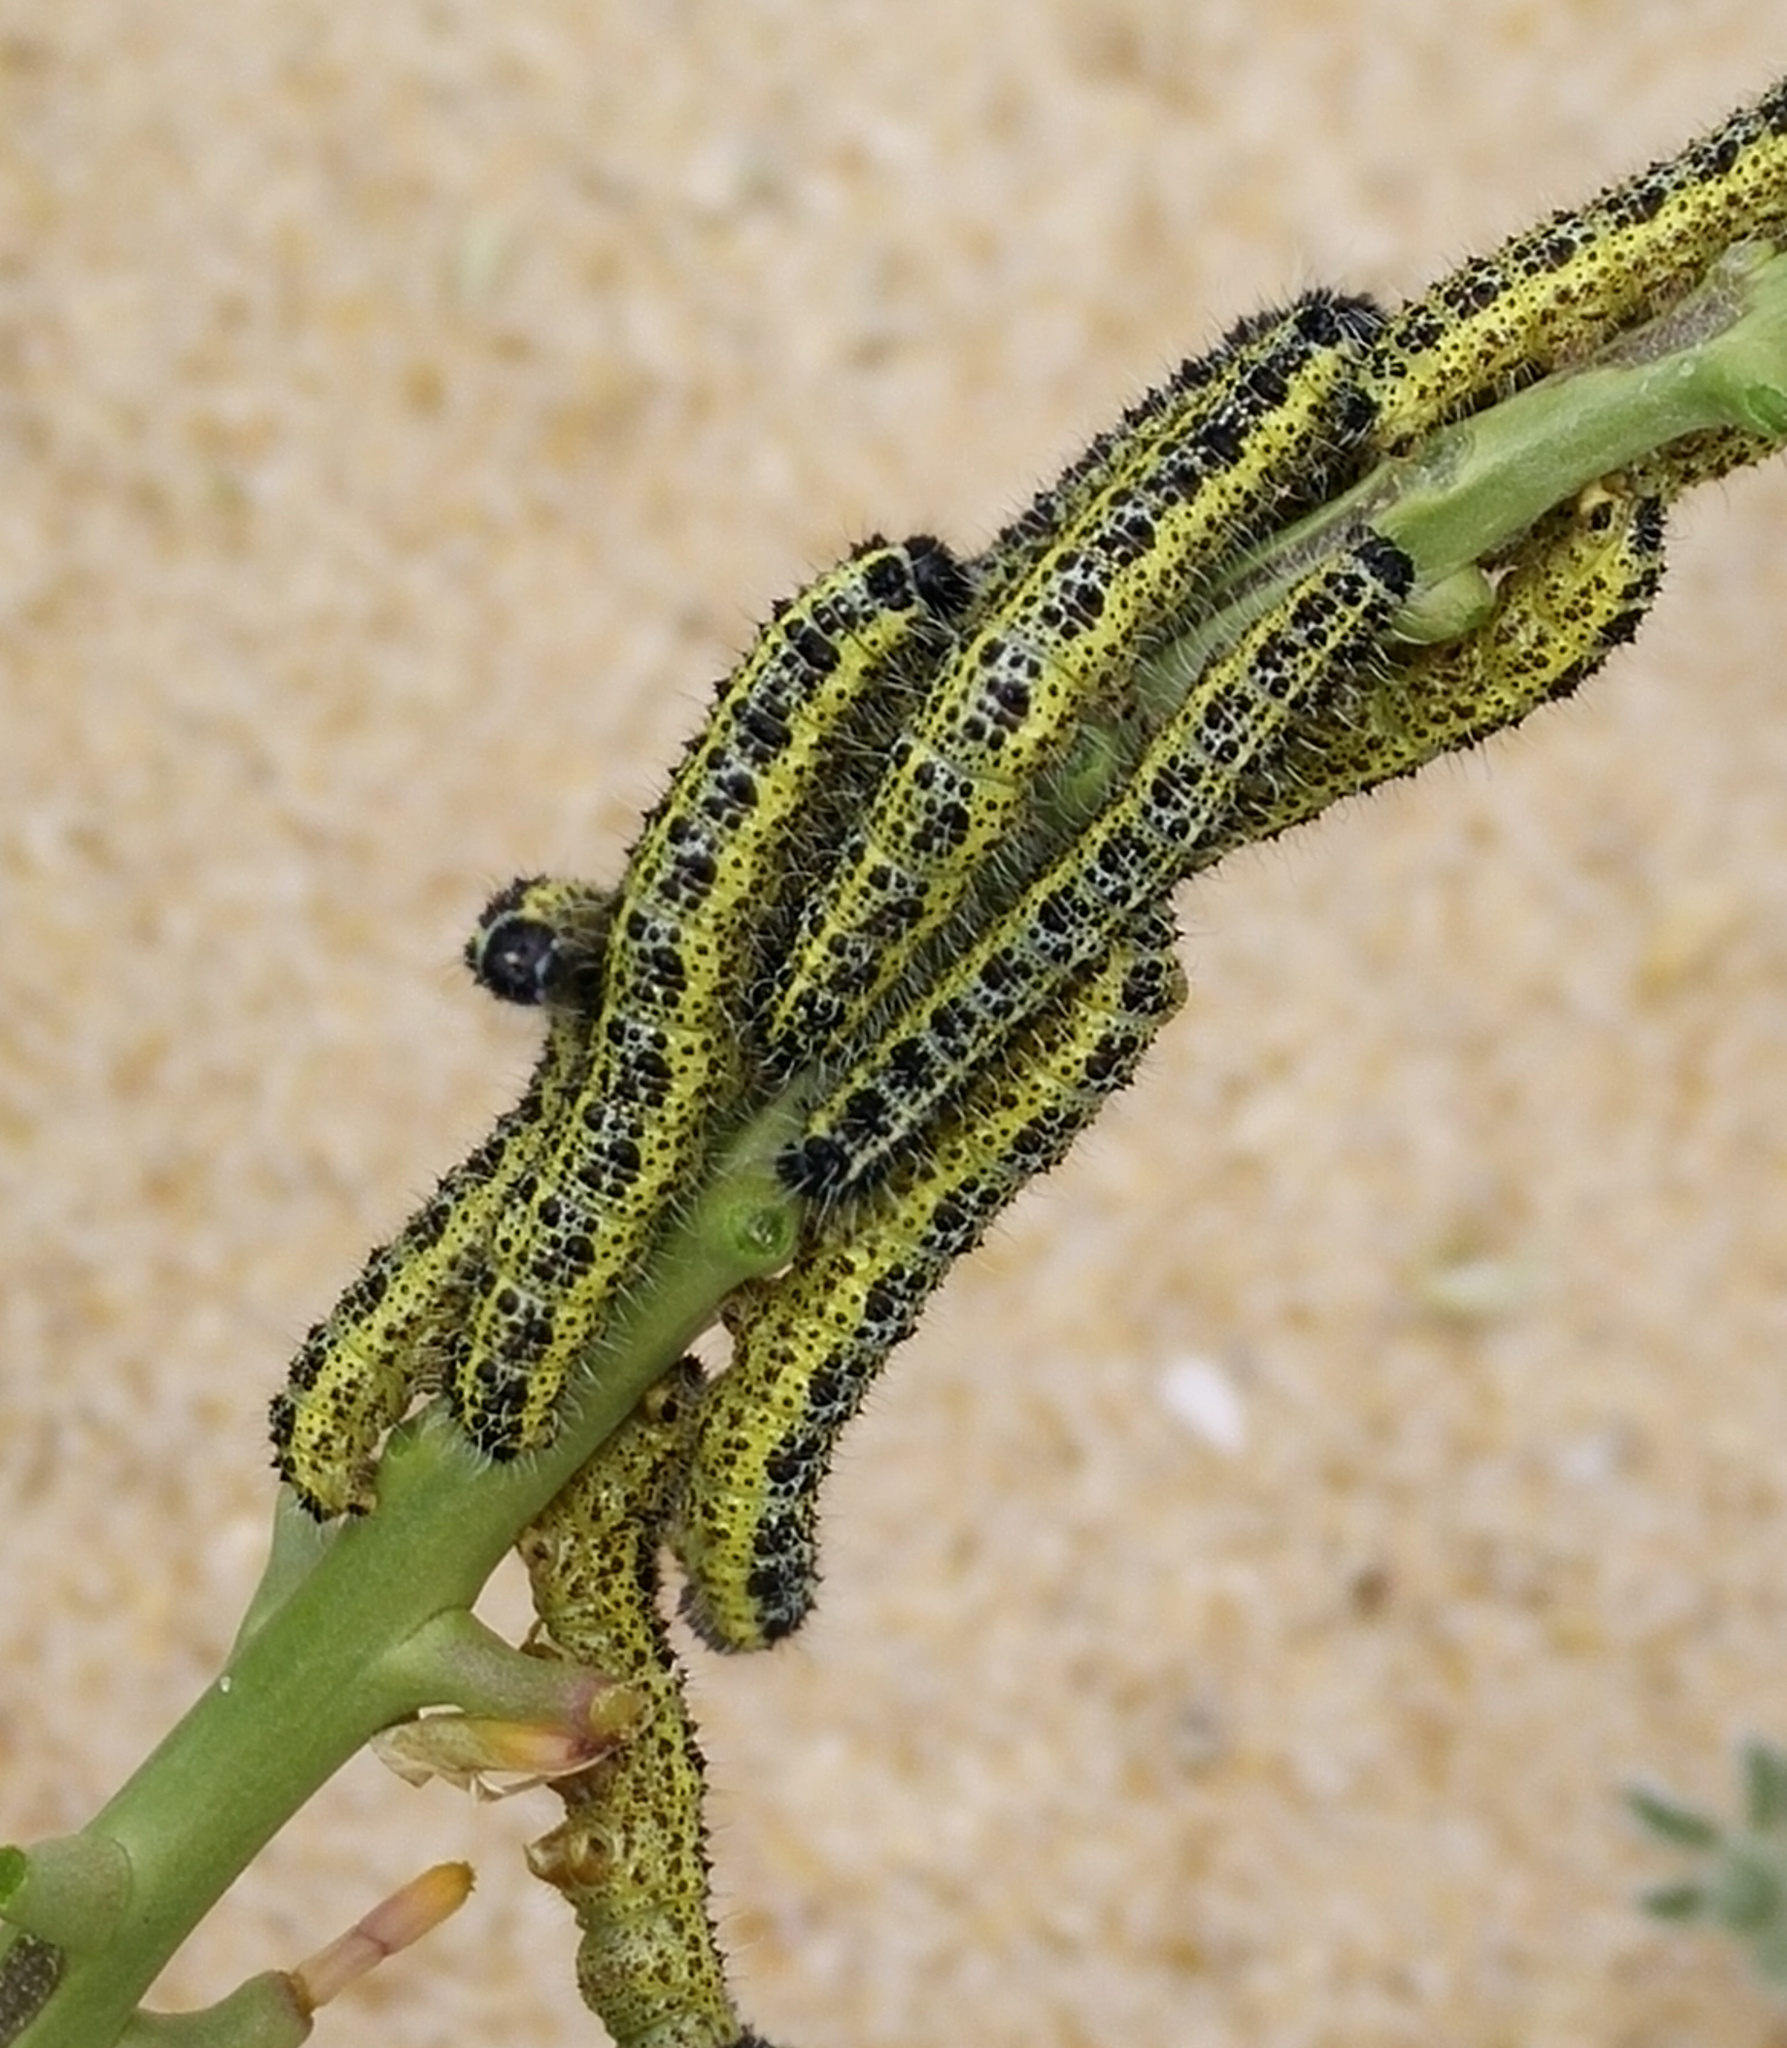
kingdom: Animalia
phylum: Arthropoda
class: Insecta
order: Lepidoptera
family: Pieridae
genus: Pieris
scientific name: Pieris brassicae
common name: Large white
